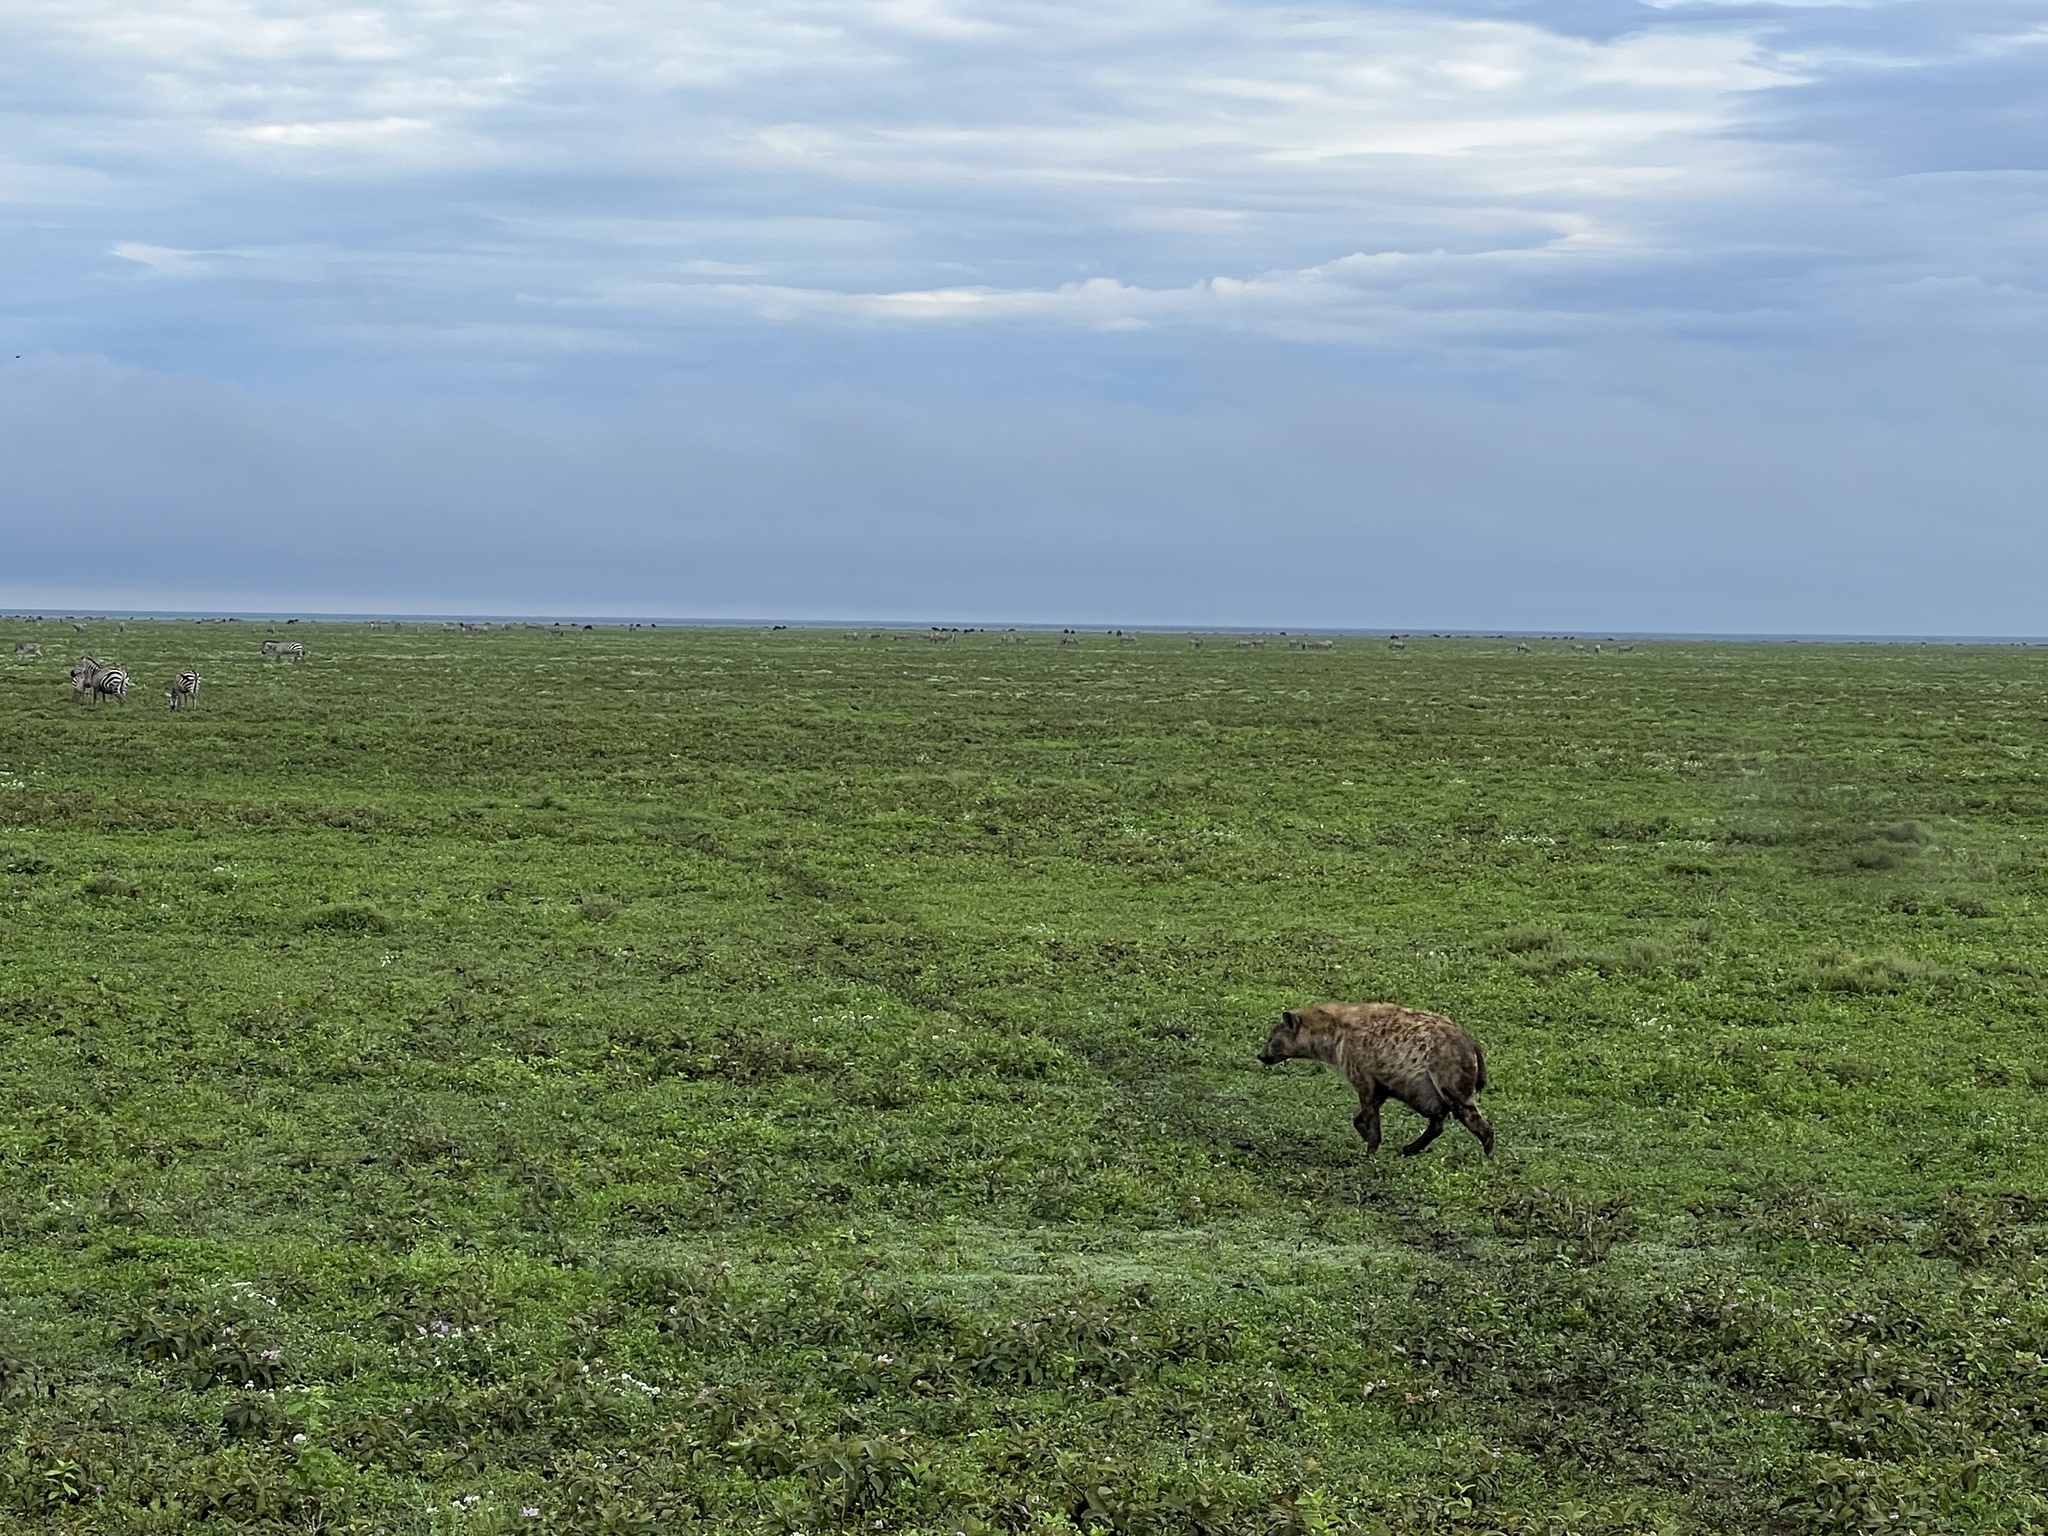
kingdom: Animalia
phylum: Chordata
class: Mammalia
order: Carnivora
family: Hyaenidae
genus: Crocuta
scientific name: Crocuta crocuta
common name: Spotted hyaena
